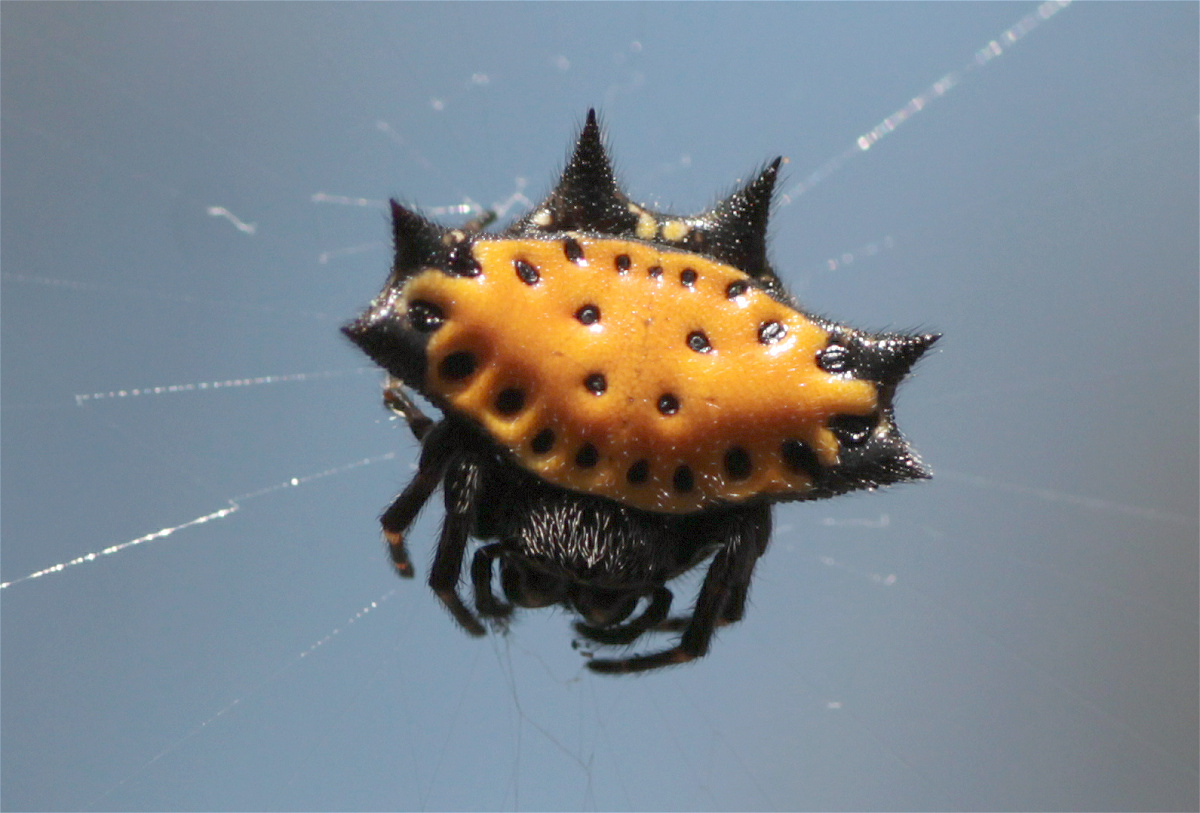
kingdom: Animalia
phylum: Arthropoda
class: Arachnida
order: Araneae
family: Araneidae
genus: Gasteracantha
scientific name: Gasteracantha cancriformis
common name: Orb weavers
